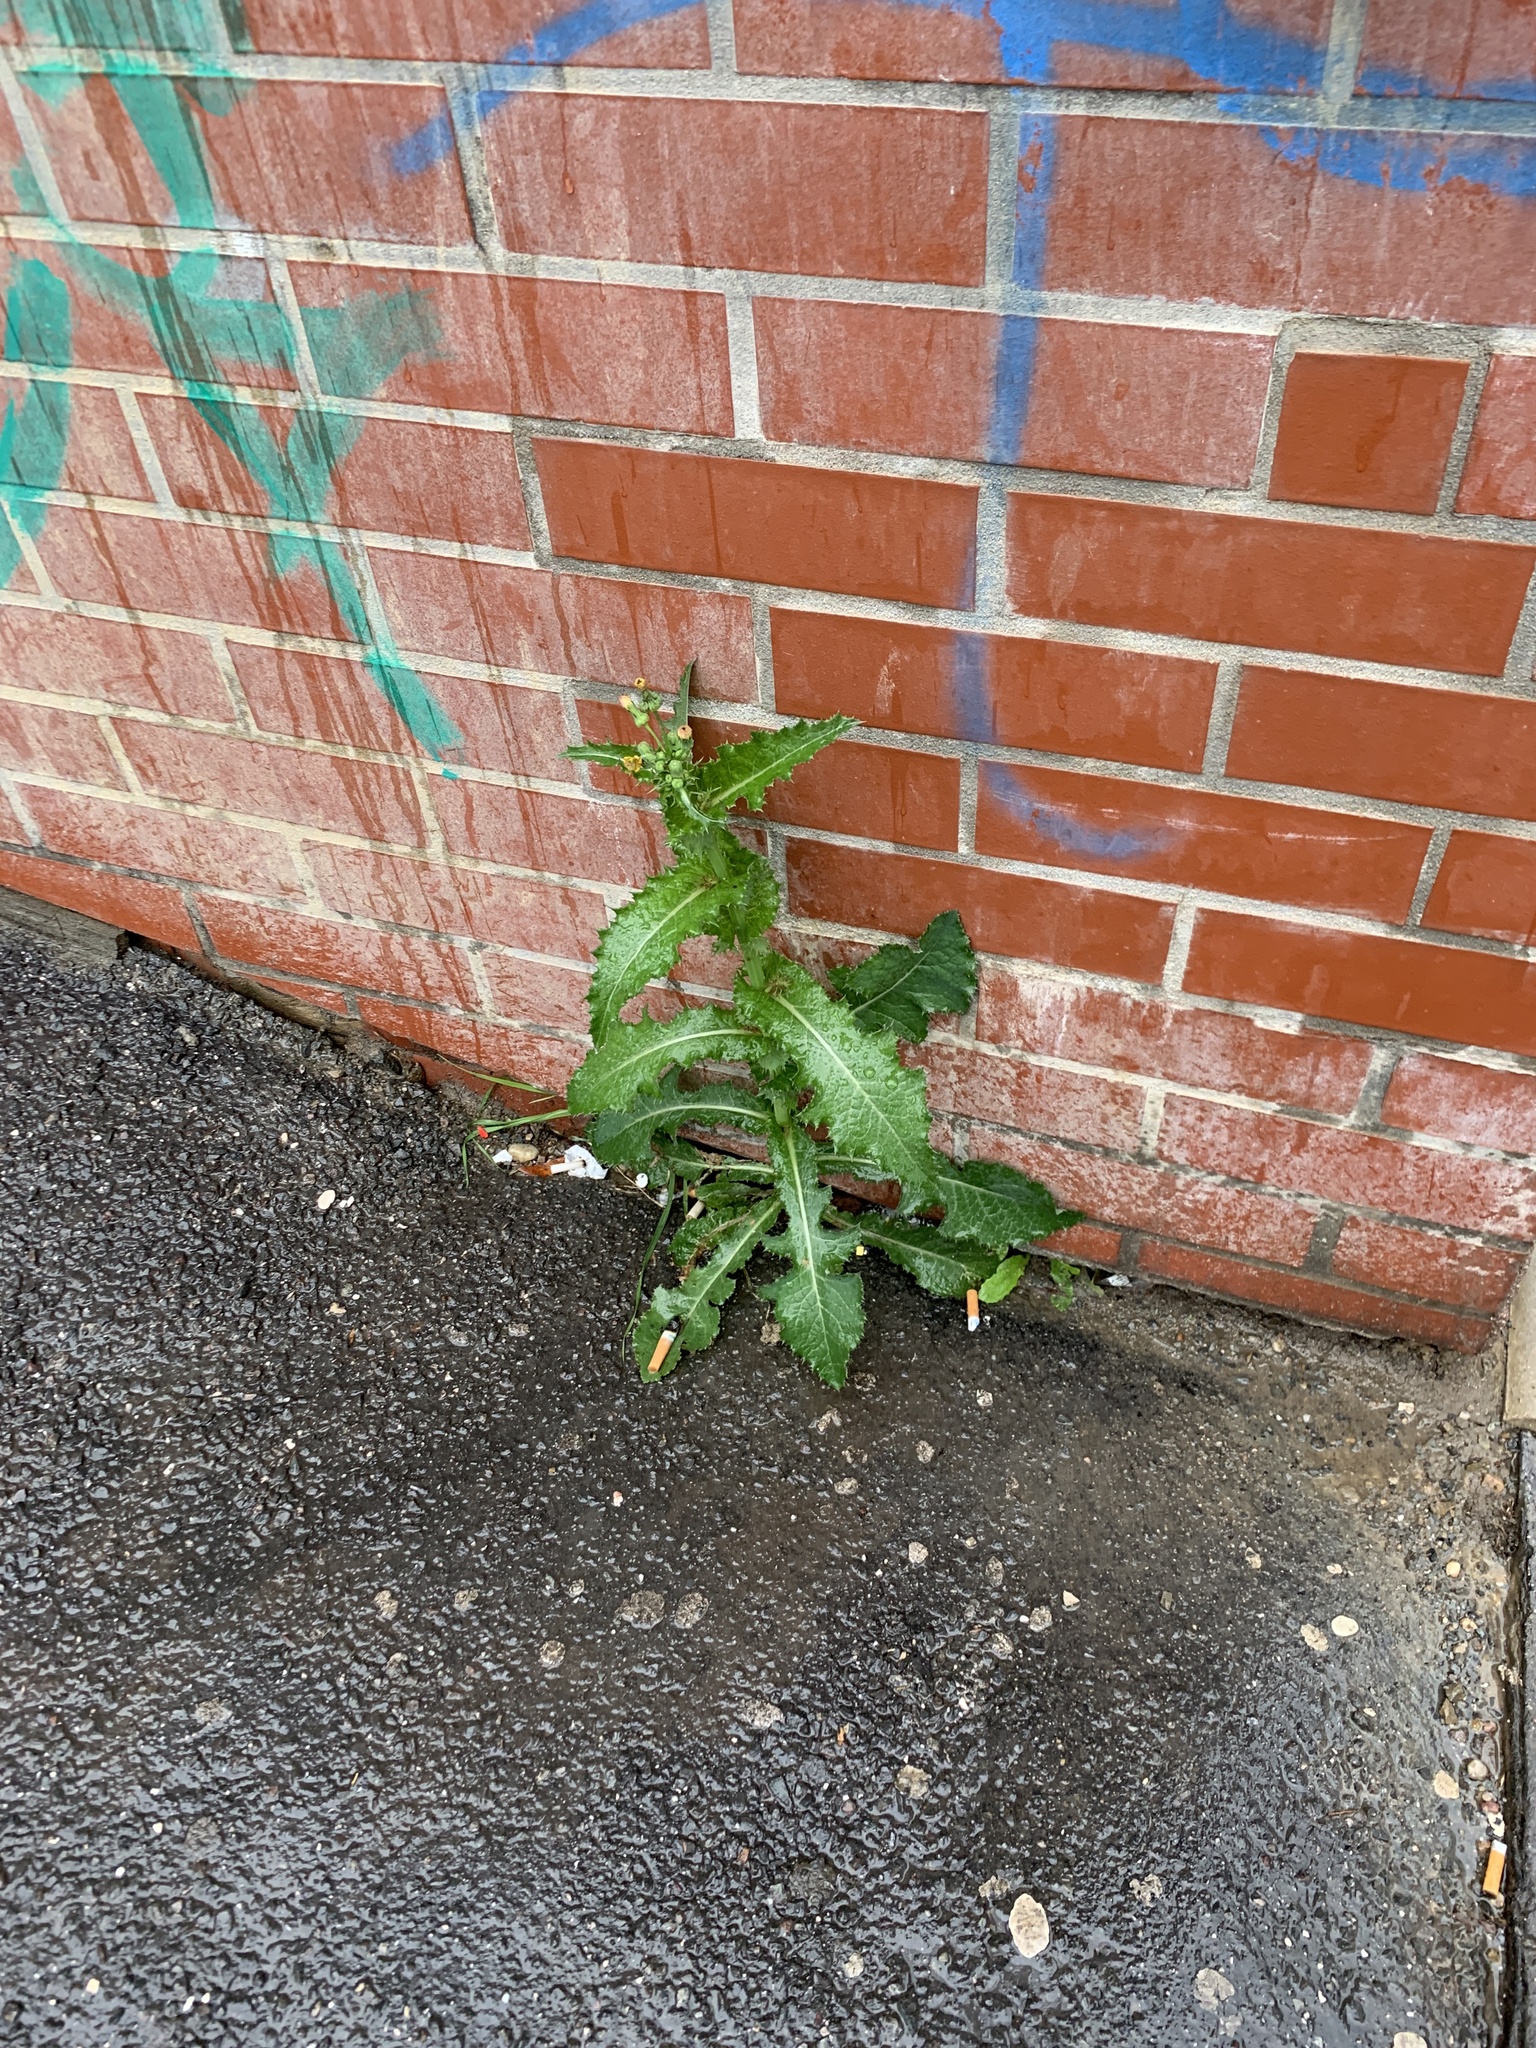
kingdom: Plantae
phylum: Tracheophyta
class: Magnoliopsida
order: Asterales
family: Asteraceae
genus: Sonchus
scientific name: Sonchus asper
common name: Prickly sow-thistle
